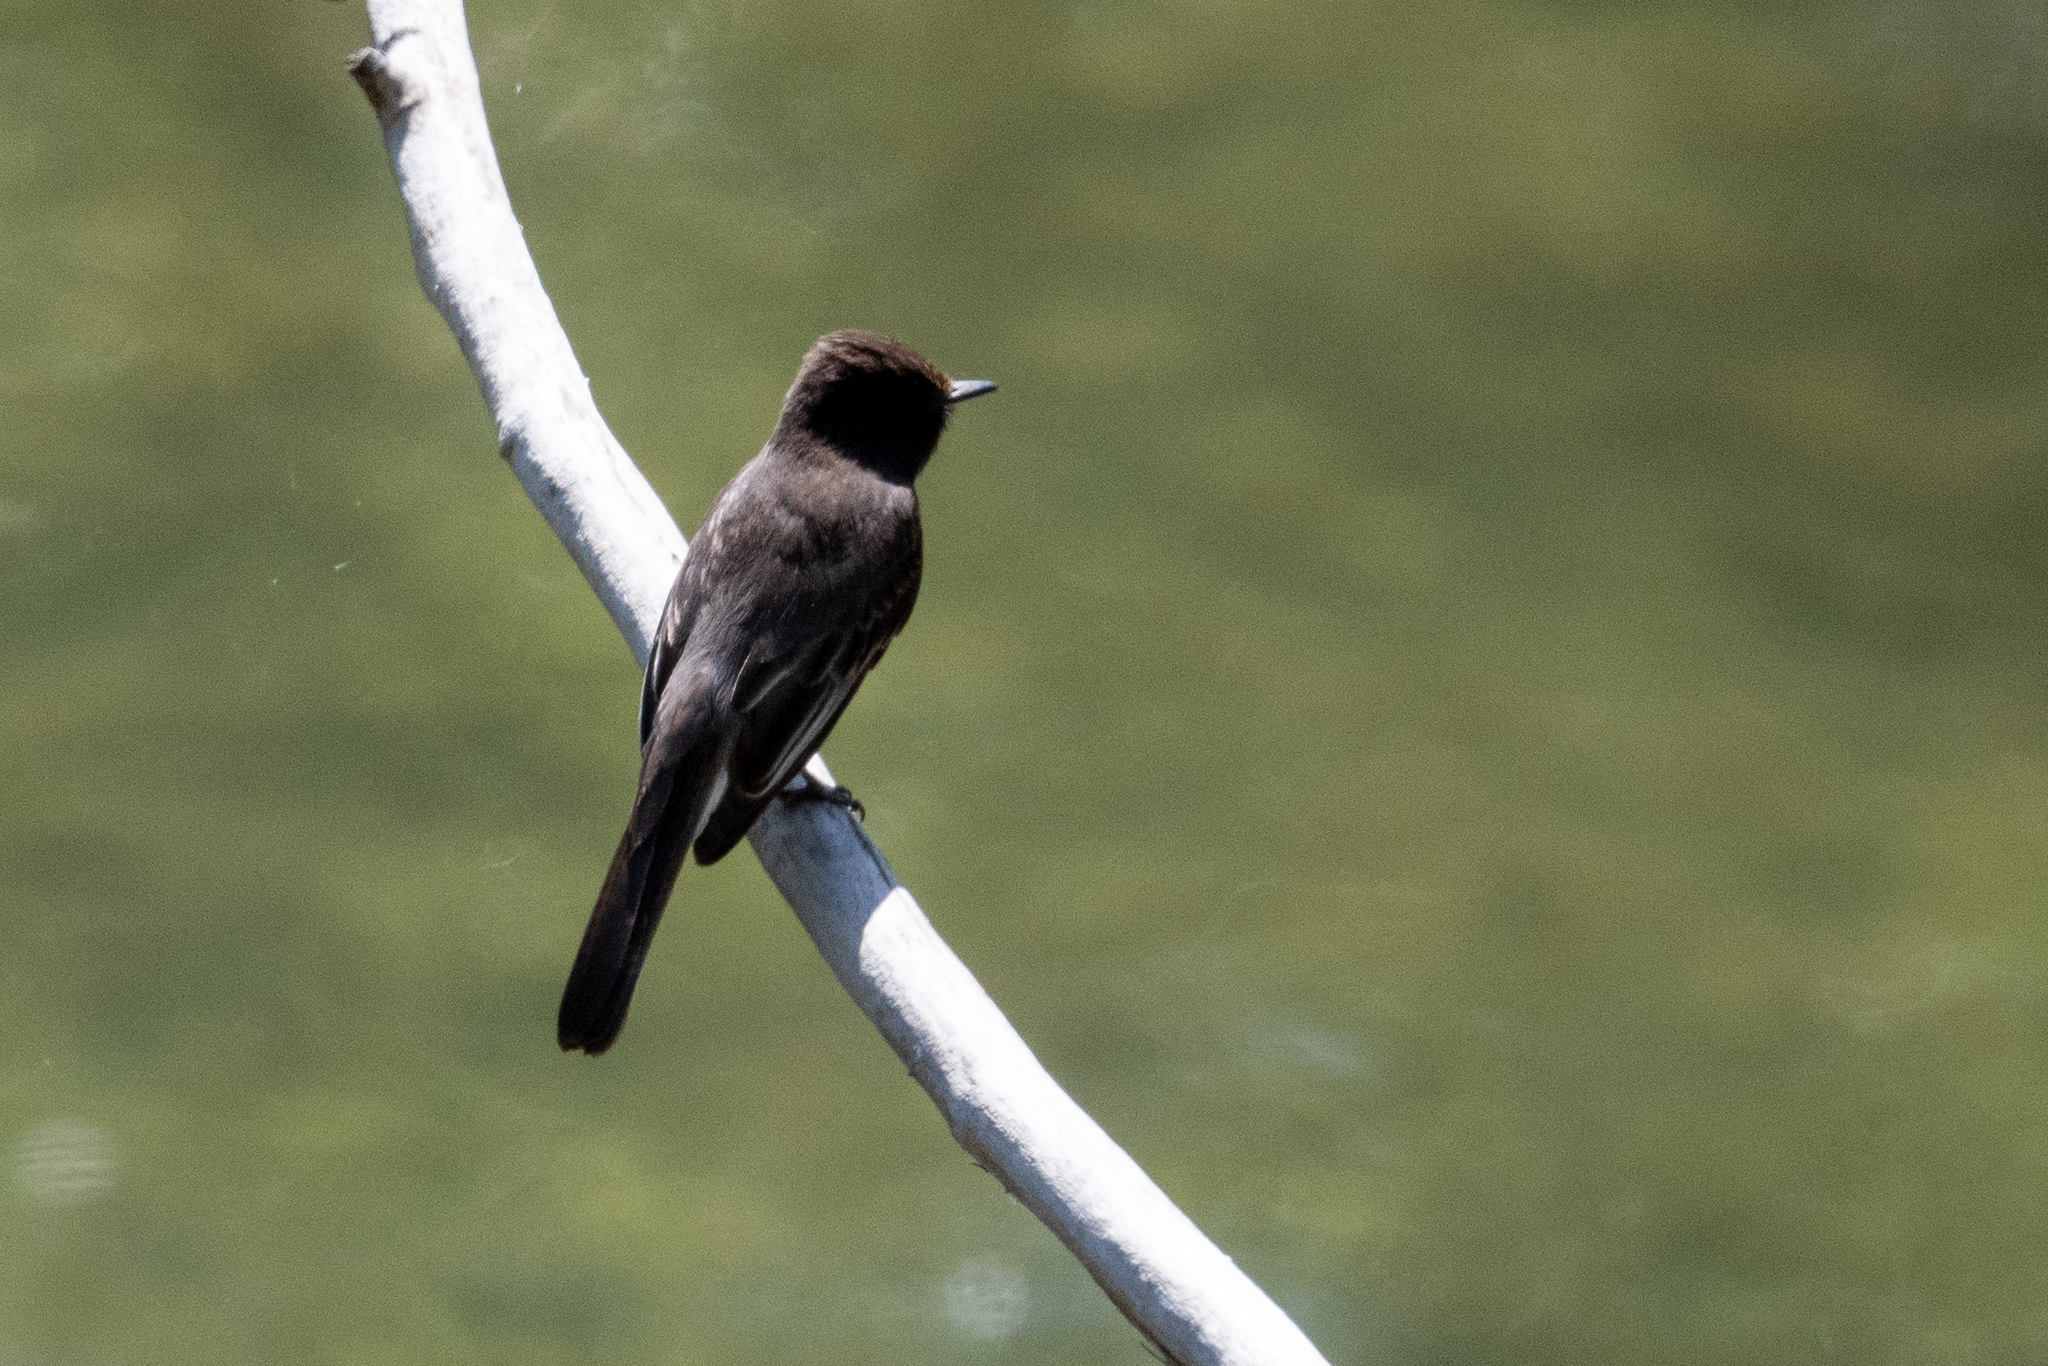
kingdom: Animalia
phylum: Chordata
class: Aves
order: Passeriformes
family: Tyrannidae
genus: Sayornis
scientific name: Sayornis nigricans
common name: Black phoebe
